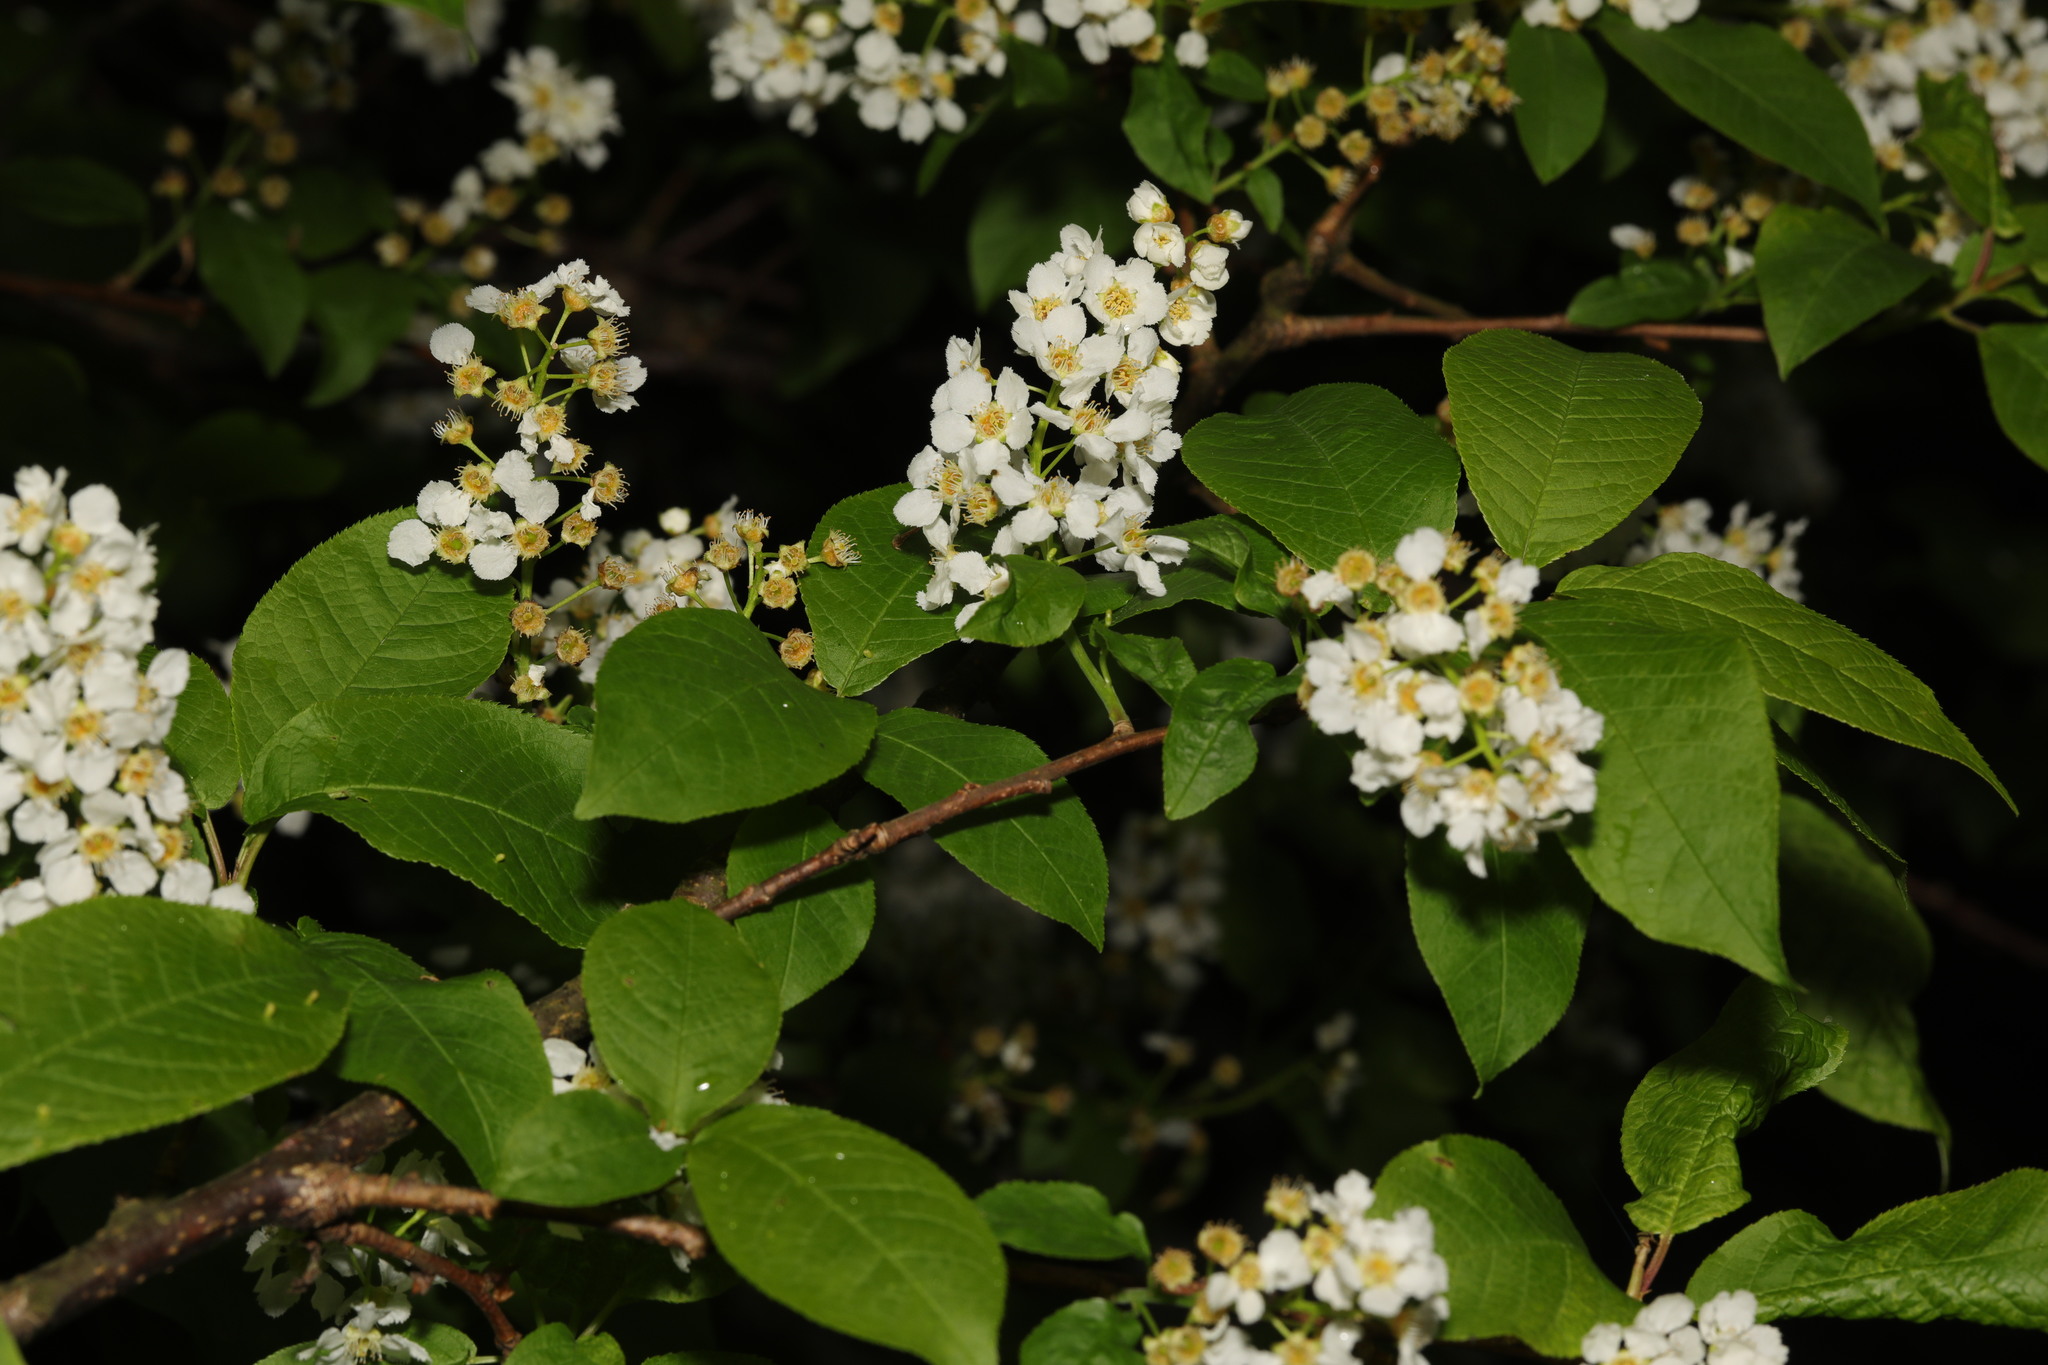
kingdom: Plantae
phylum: Tracheophyta
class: Magnoliopsida
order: Rosales
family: Rosaceae
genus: Prunus
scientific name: Prunus padus
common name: Bird cherry
